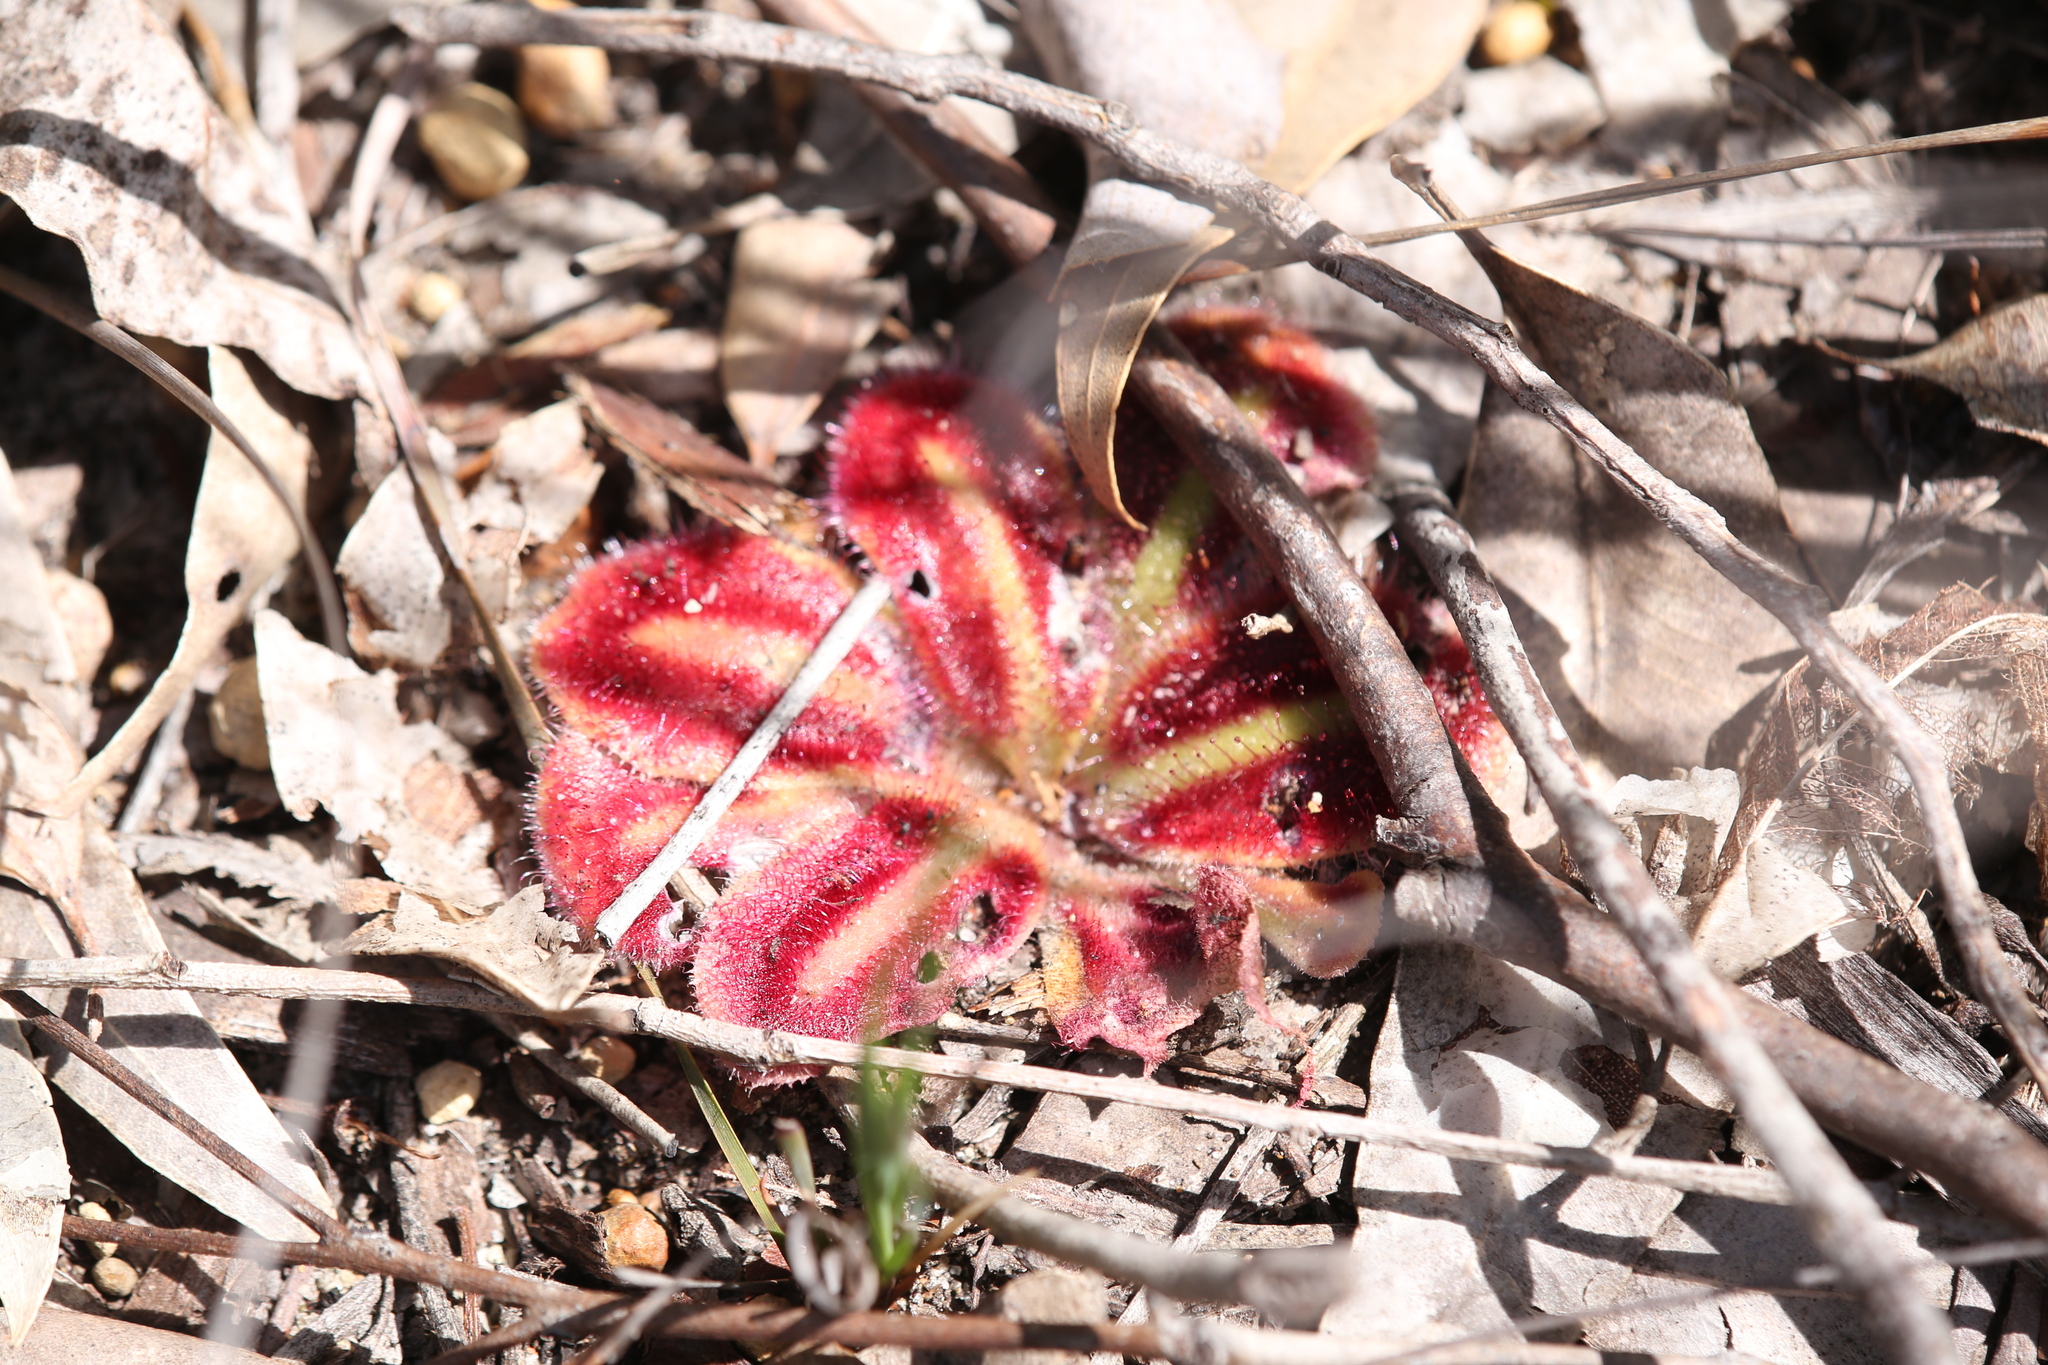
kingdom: Plantae
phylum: Tracheophyta
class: Magnoliopsida
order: Caryophyllales
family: Droseraceae
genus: Drosera
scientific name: Drosera erythrorhiza
